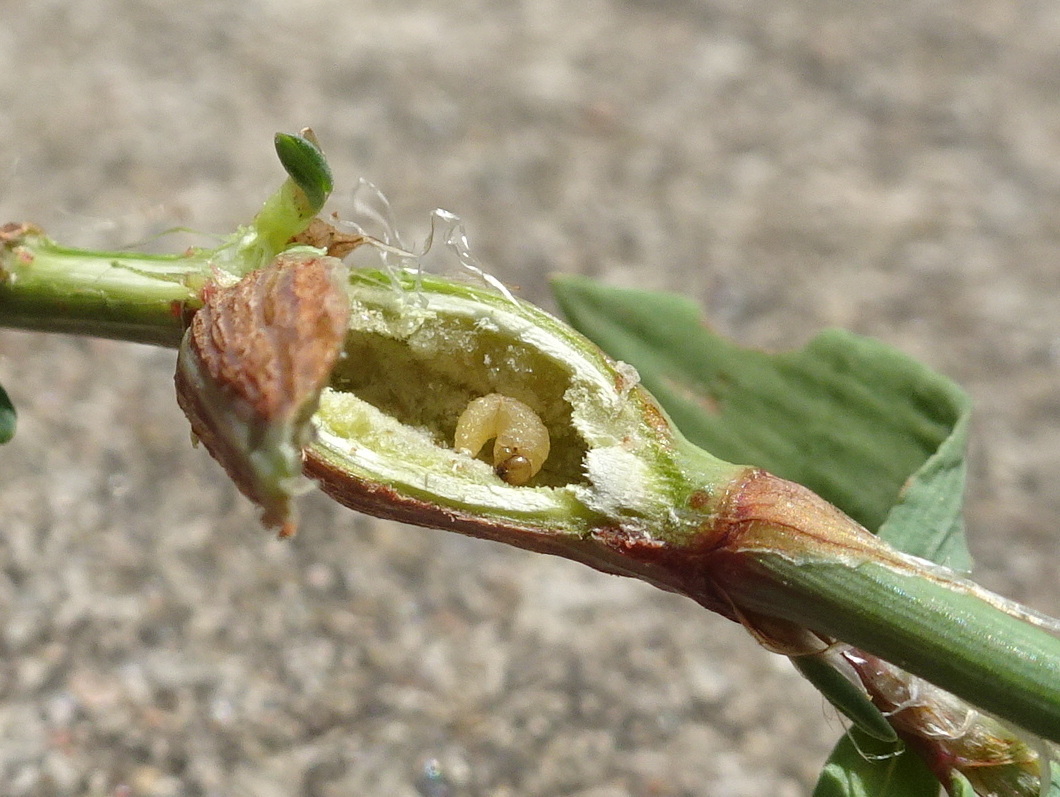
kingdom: Animalia
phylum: Arthropoda
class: Insecta
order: Coleoptera
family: Curculionidae
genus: Lixus
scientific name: Lixus musculus
